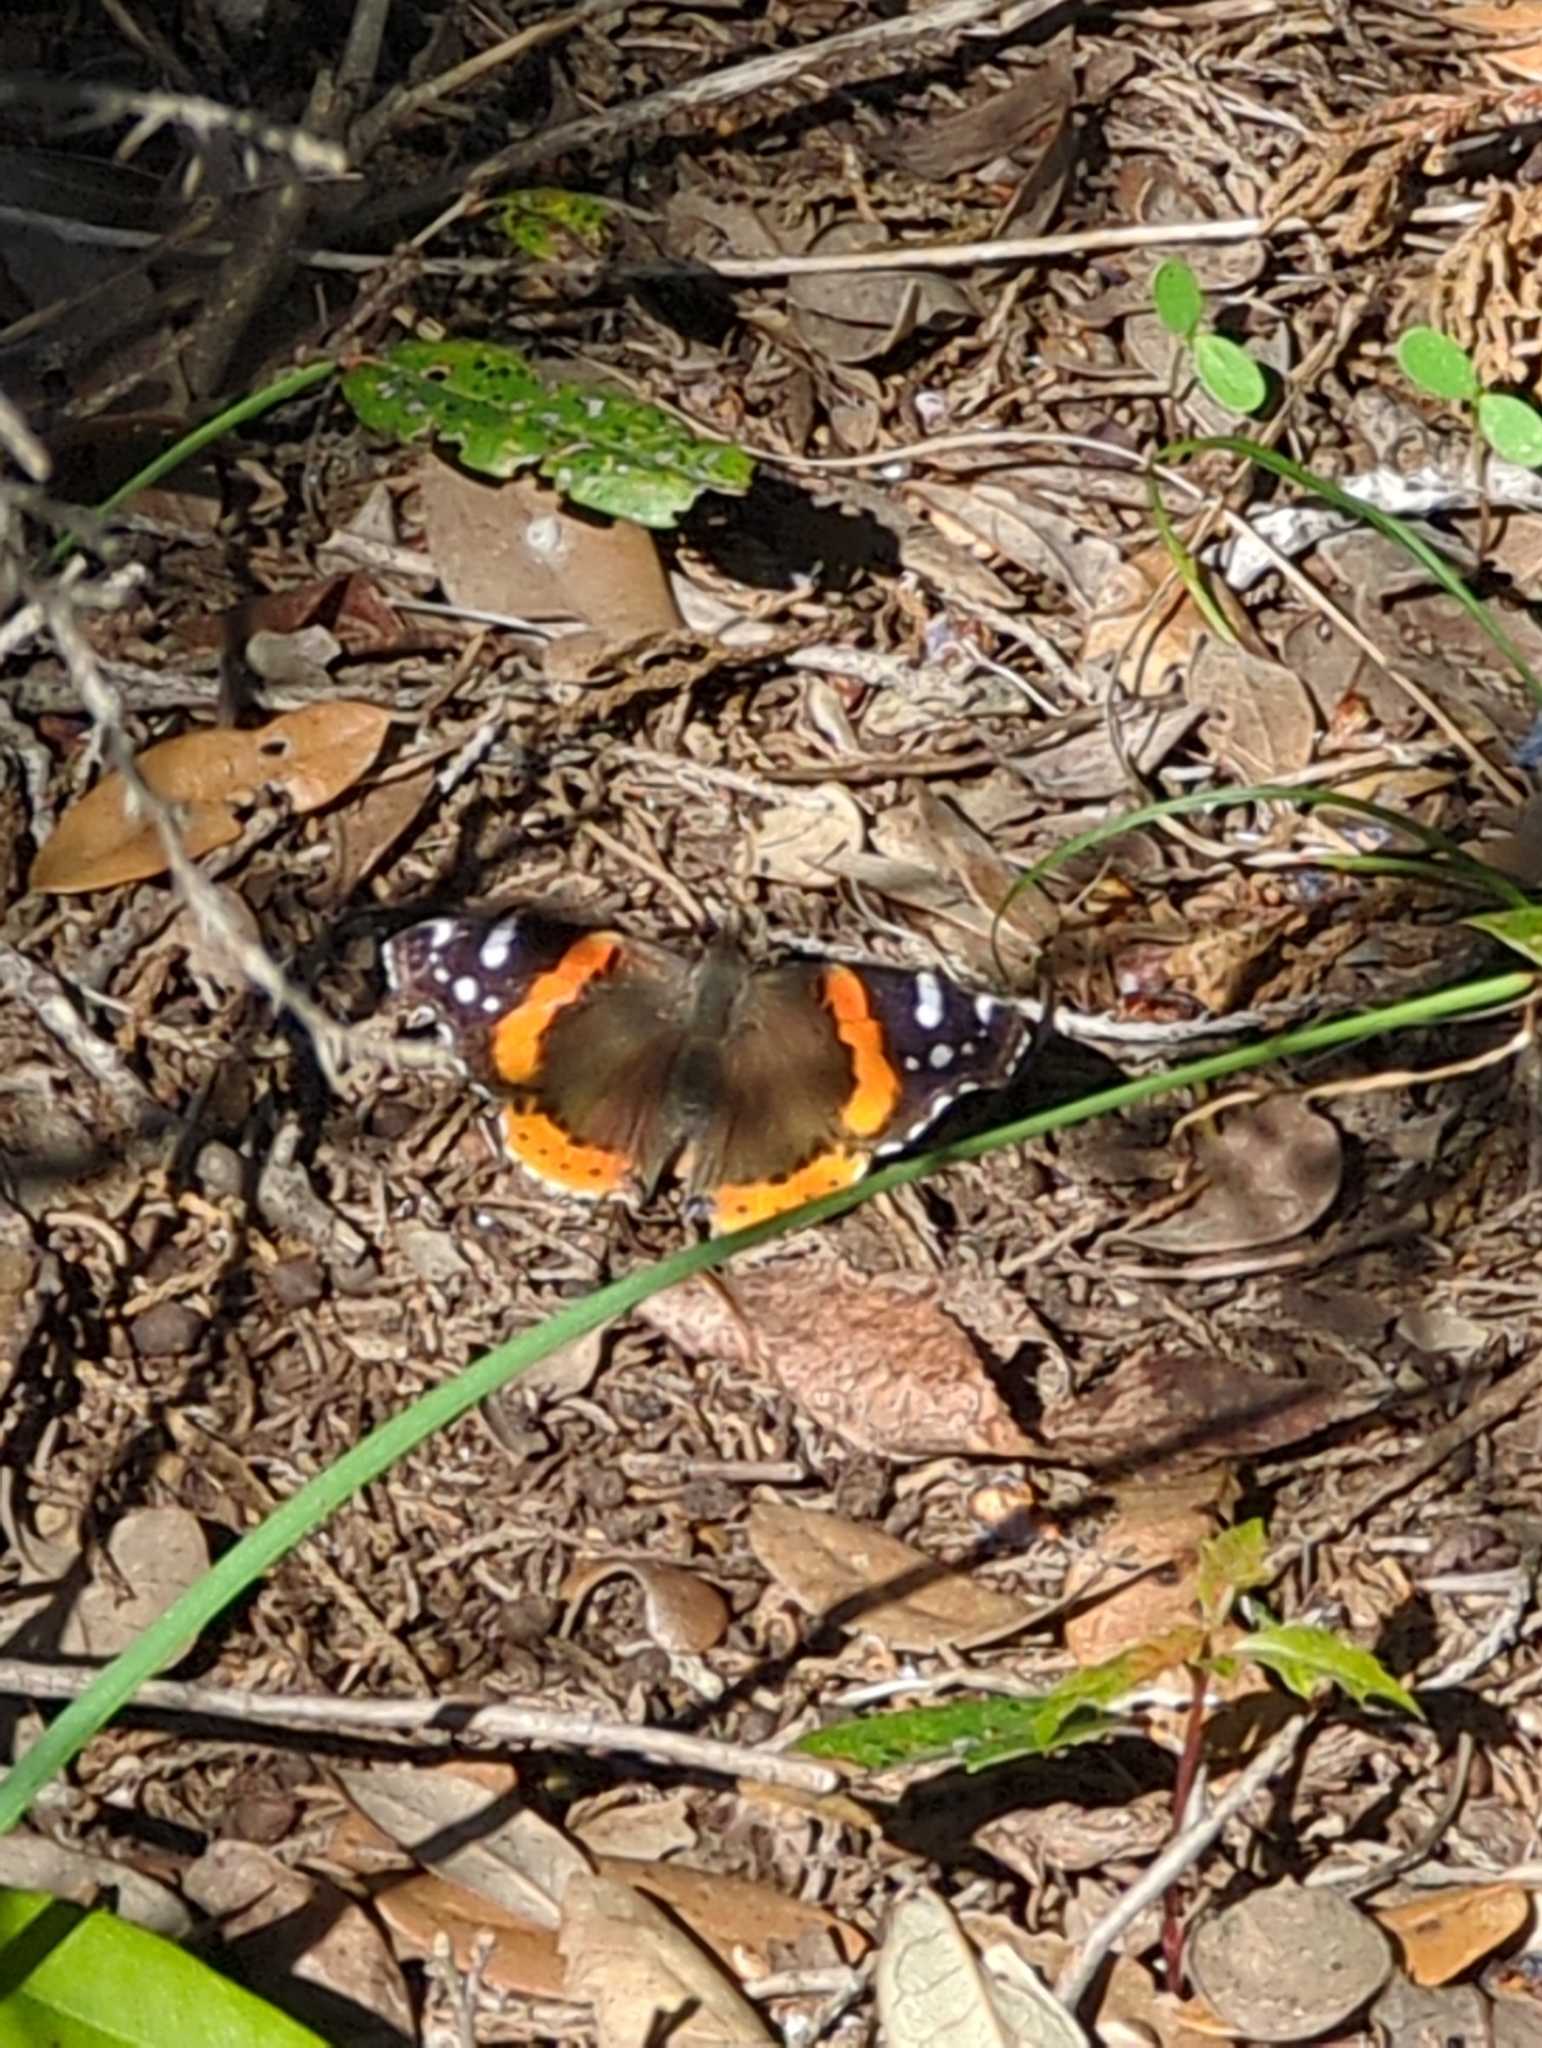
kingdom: Animalia
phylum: Arthropoda
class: Insecta
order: Lepidoptera
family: Nymphalidae
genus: Vanessa
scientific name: Vanessa atalanta
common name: Red admiral
